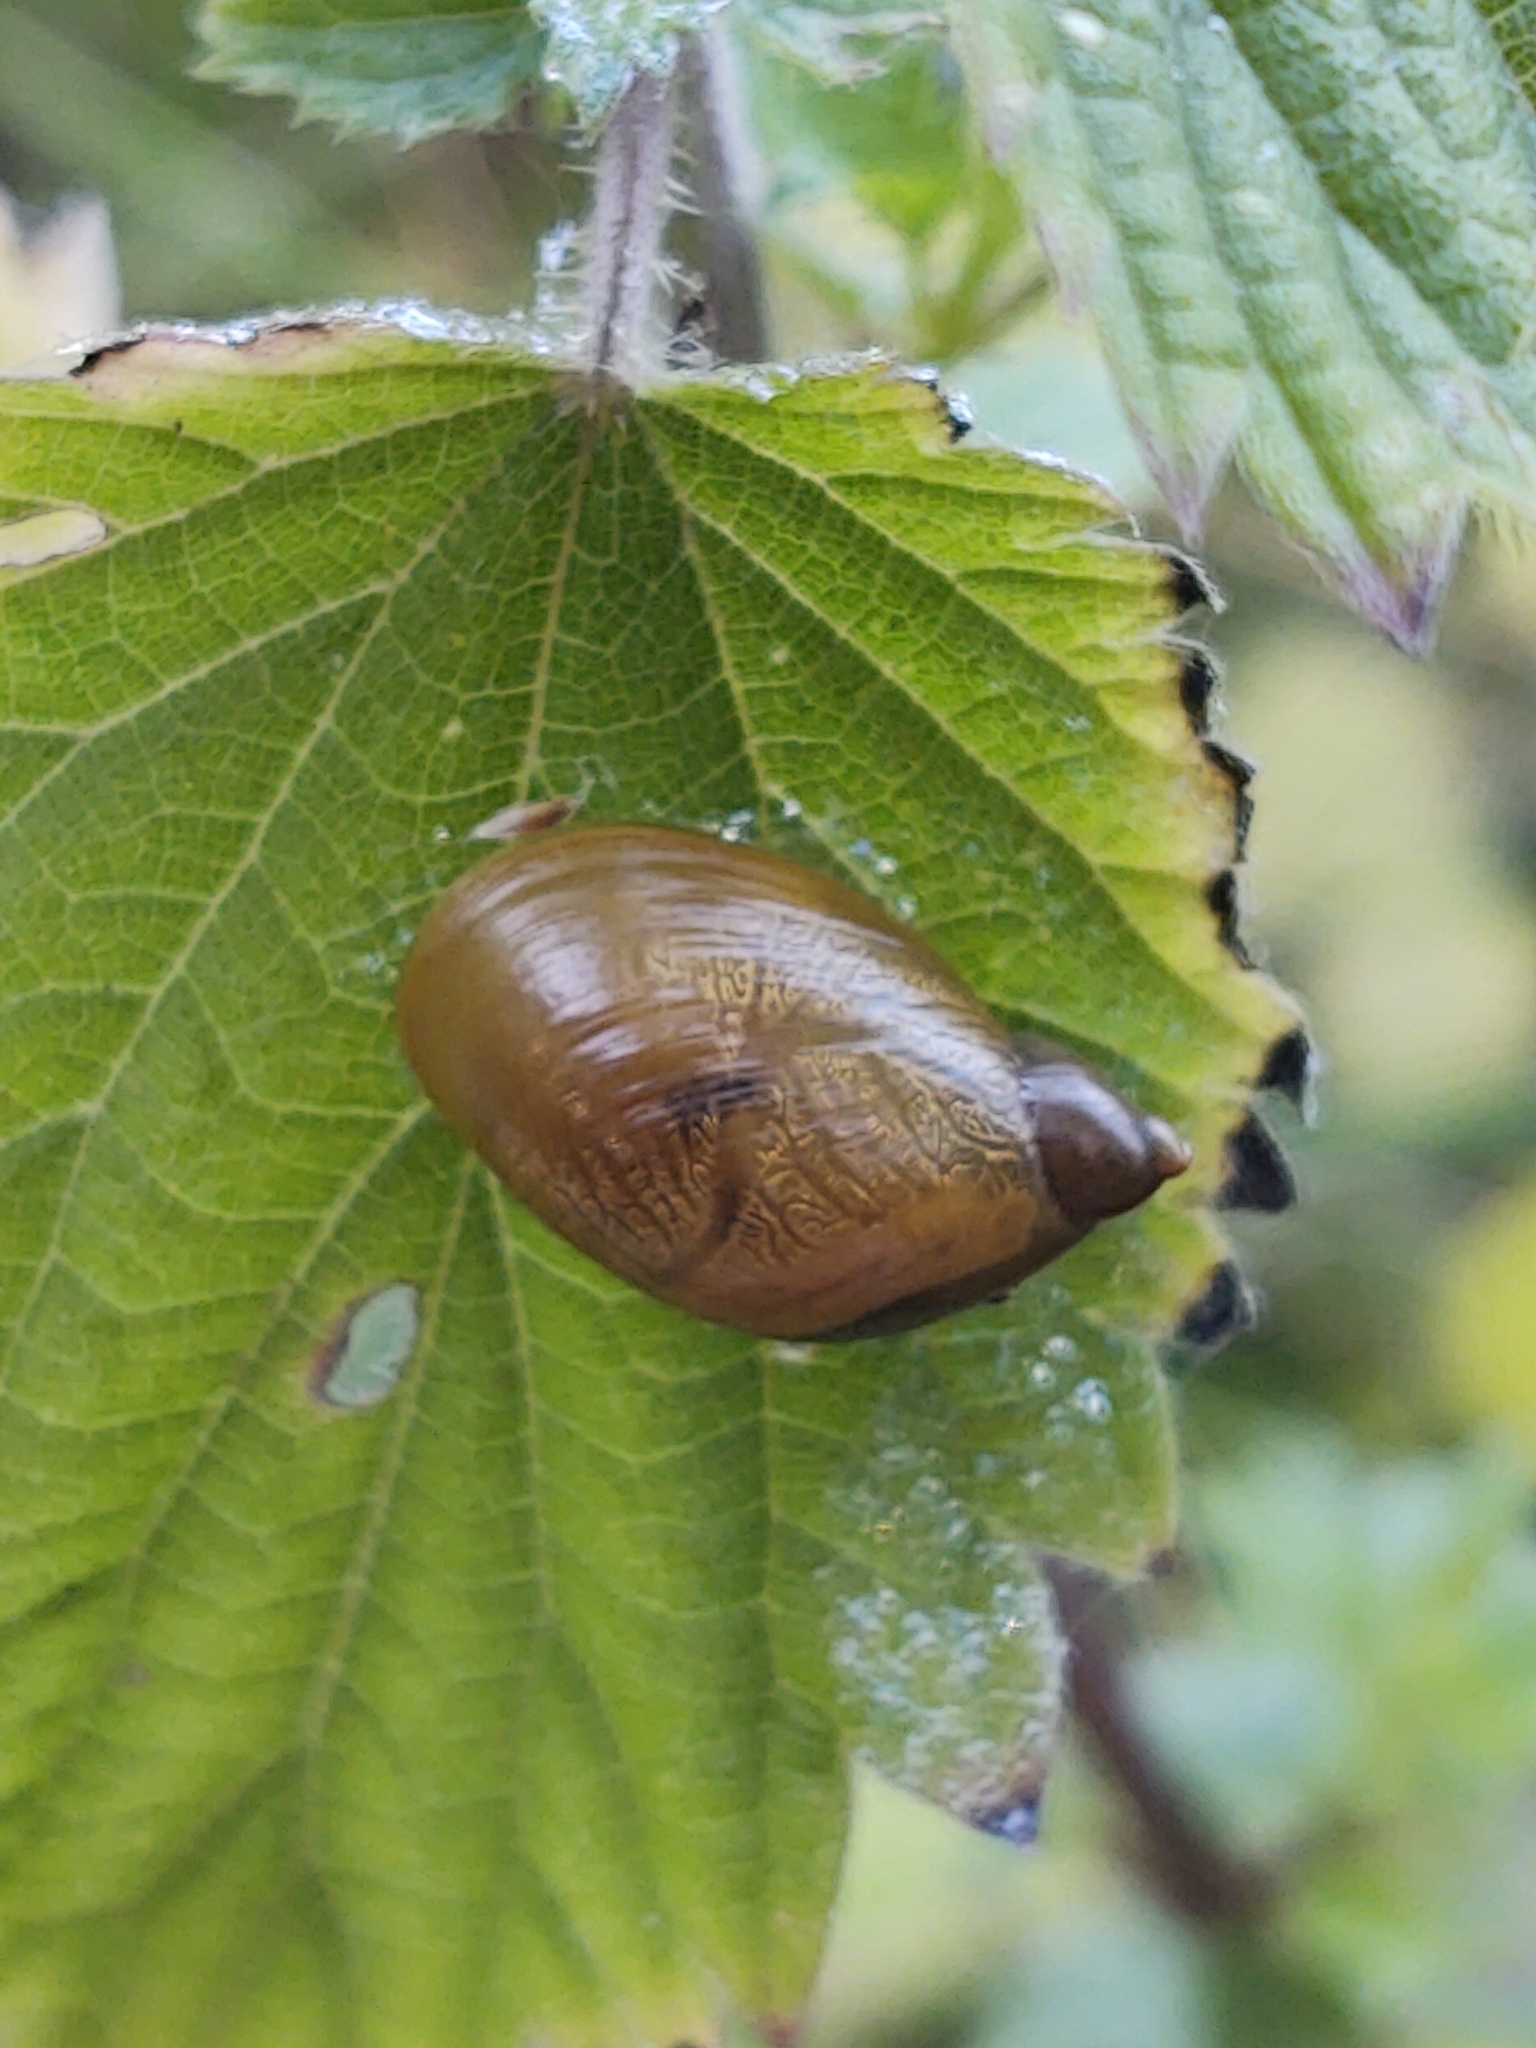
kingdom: Animalia
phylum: Mollusca
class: Gastropoda
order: Stylommatophora
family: Succineidae
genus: Succinea
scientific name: Succinea putris
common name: European ambersnail
